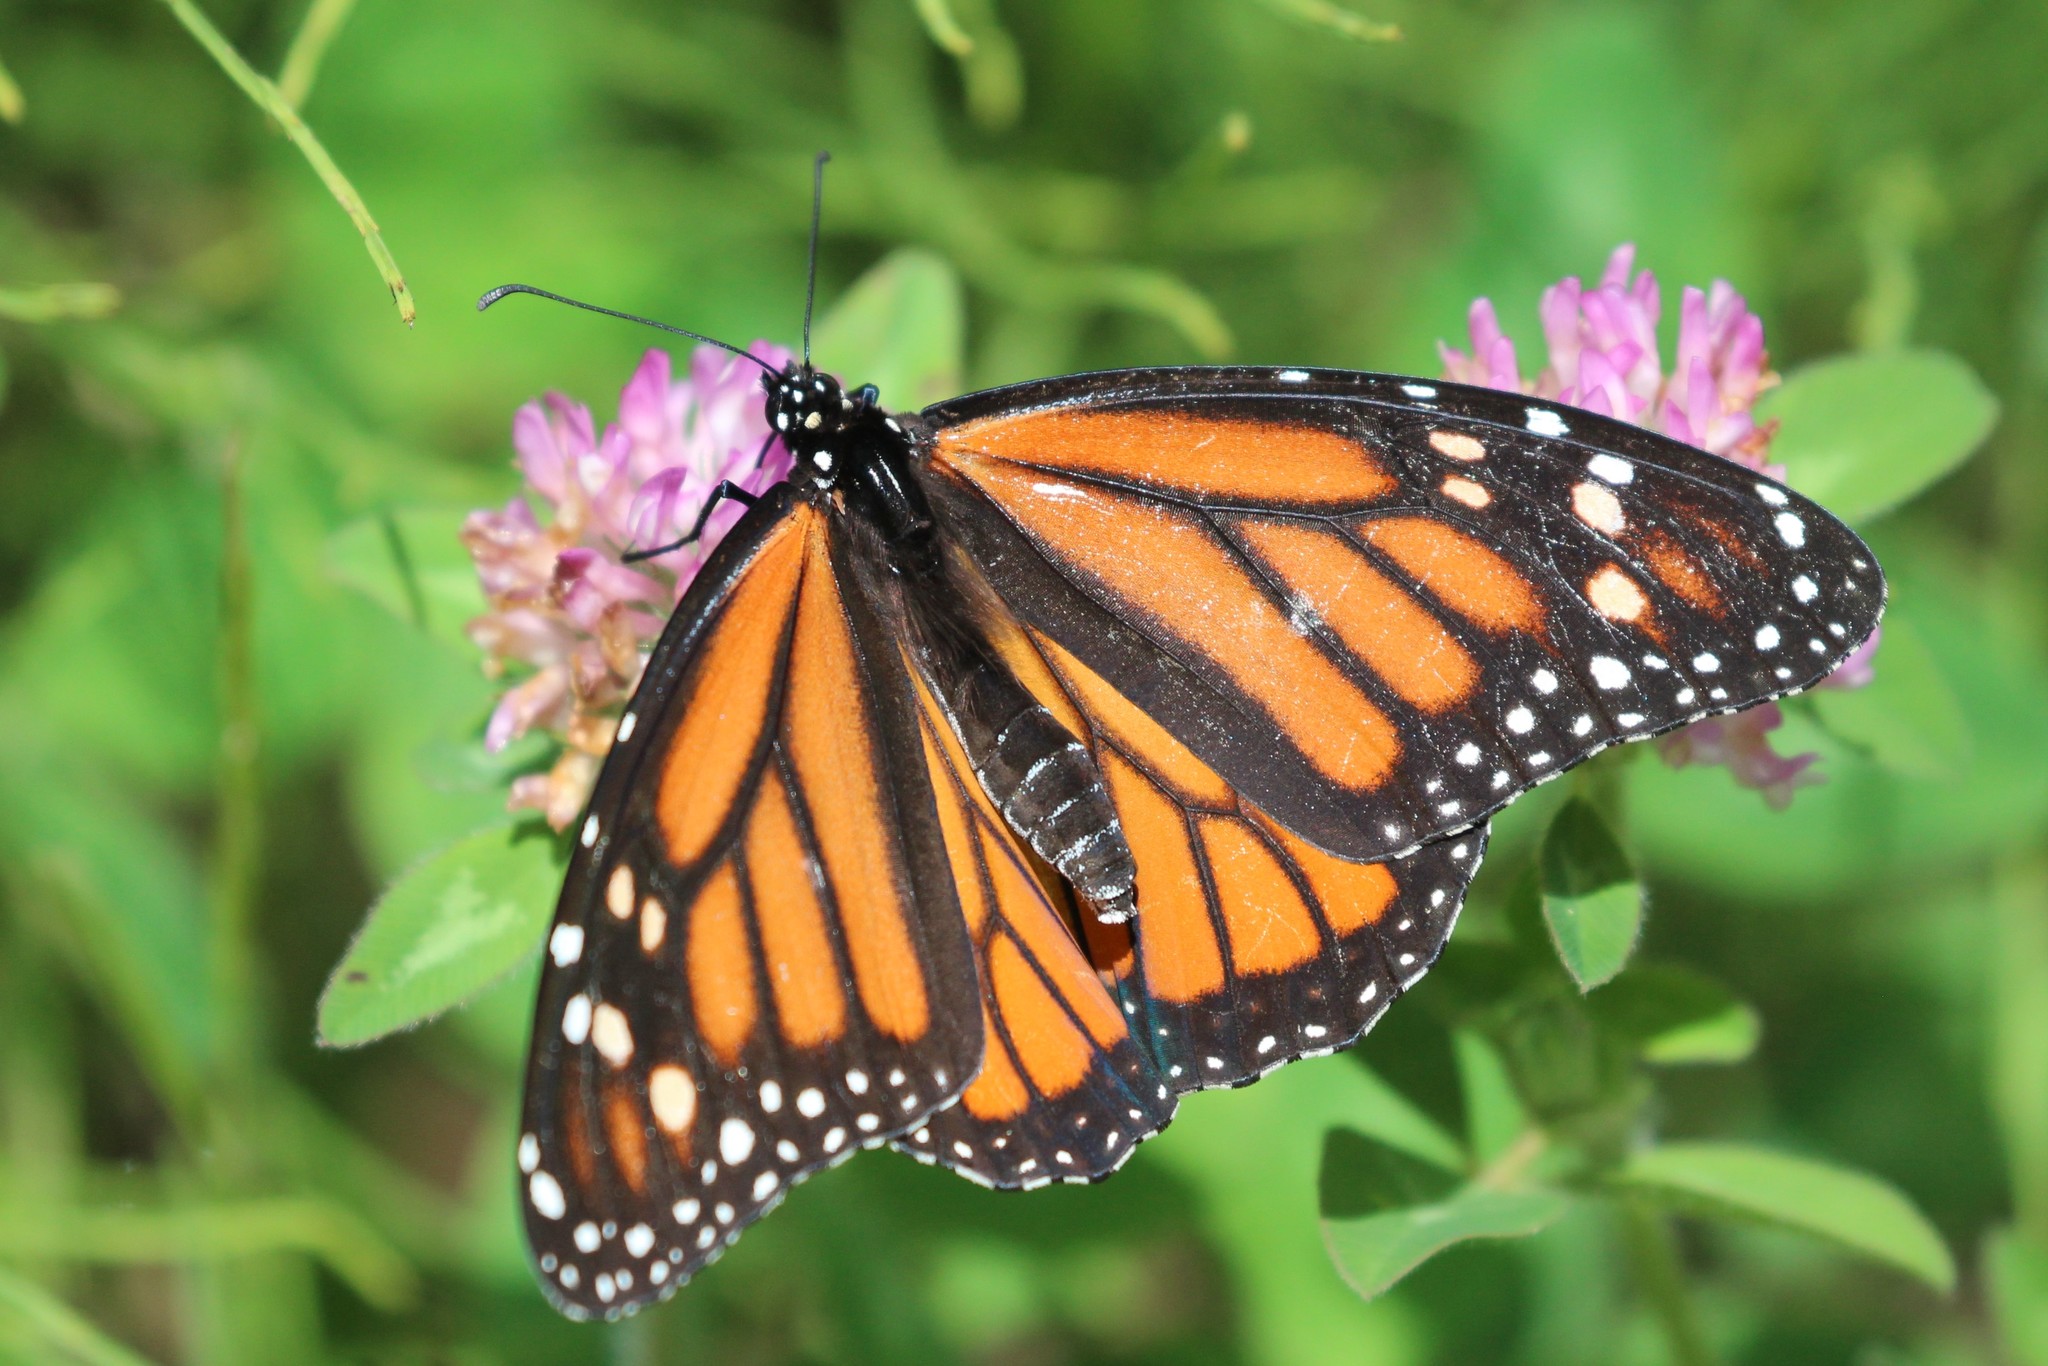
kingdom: Animalia
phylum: Arthropoda
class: Insecta
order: Lepidoptera
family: Nymphalidae
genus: Danaus
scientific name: Danaus plexippus
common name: Monarch
